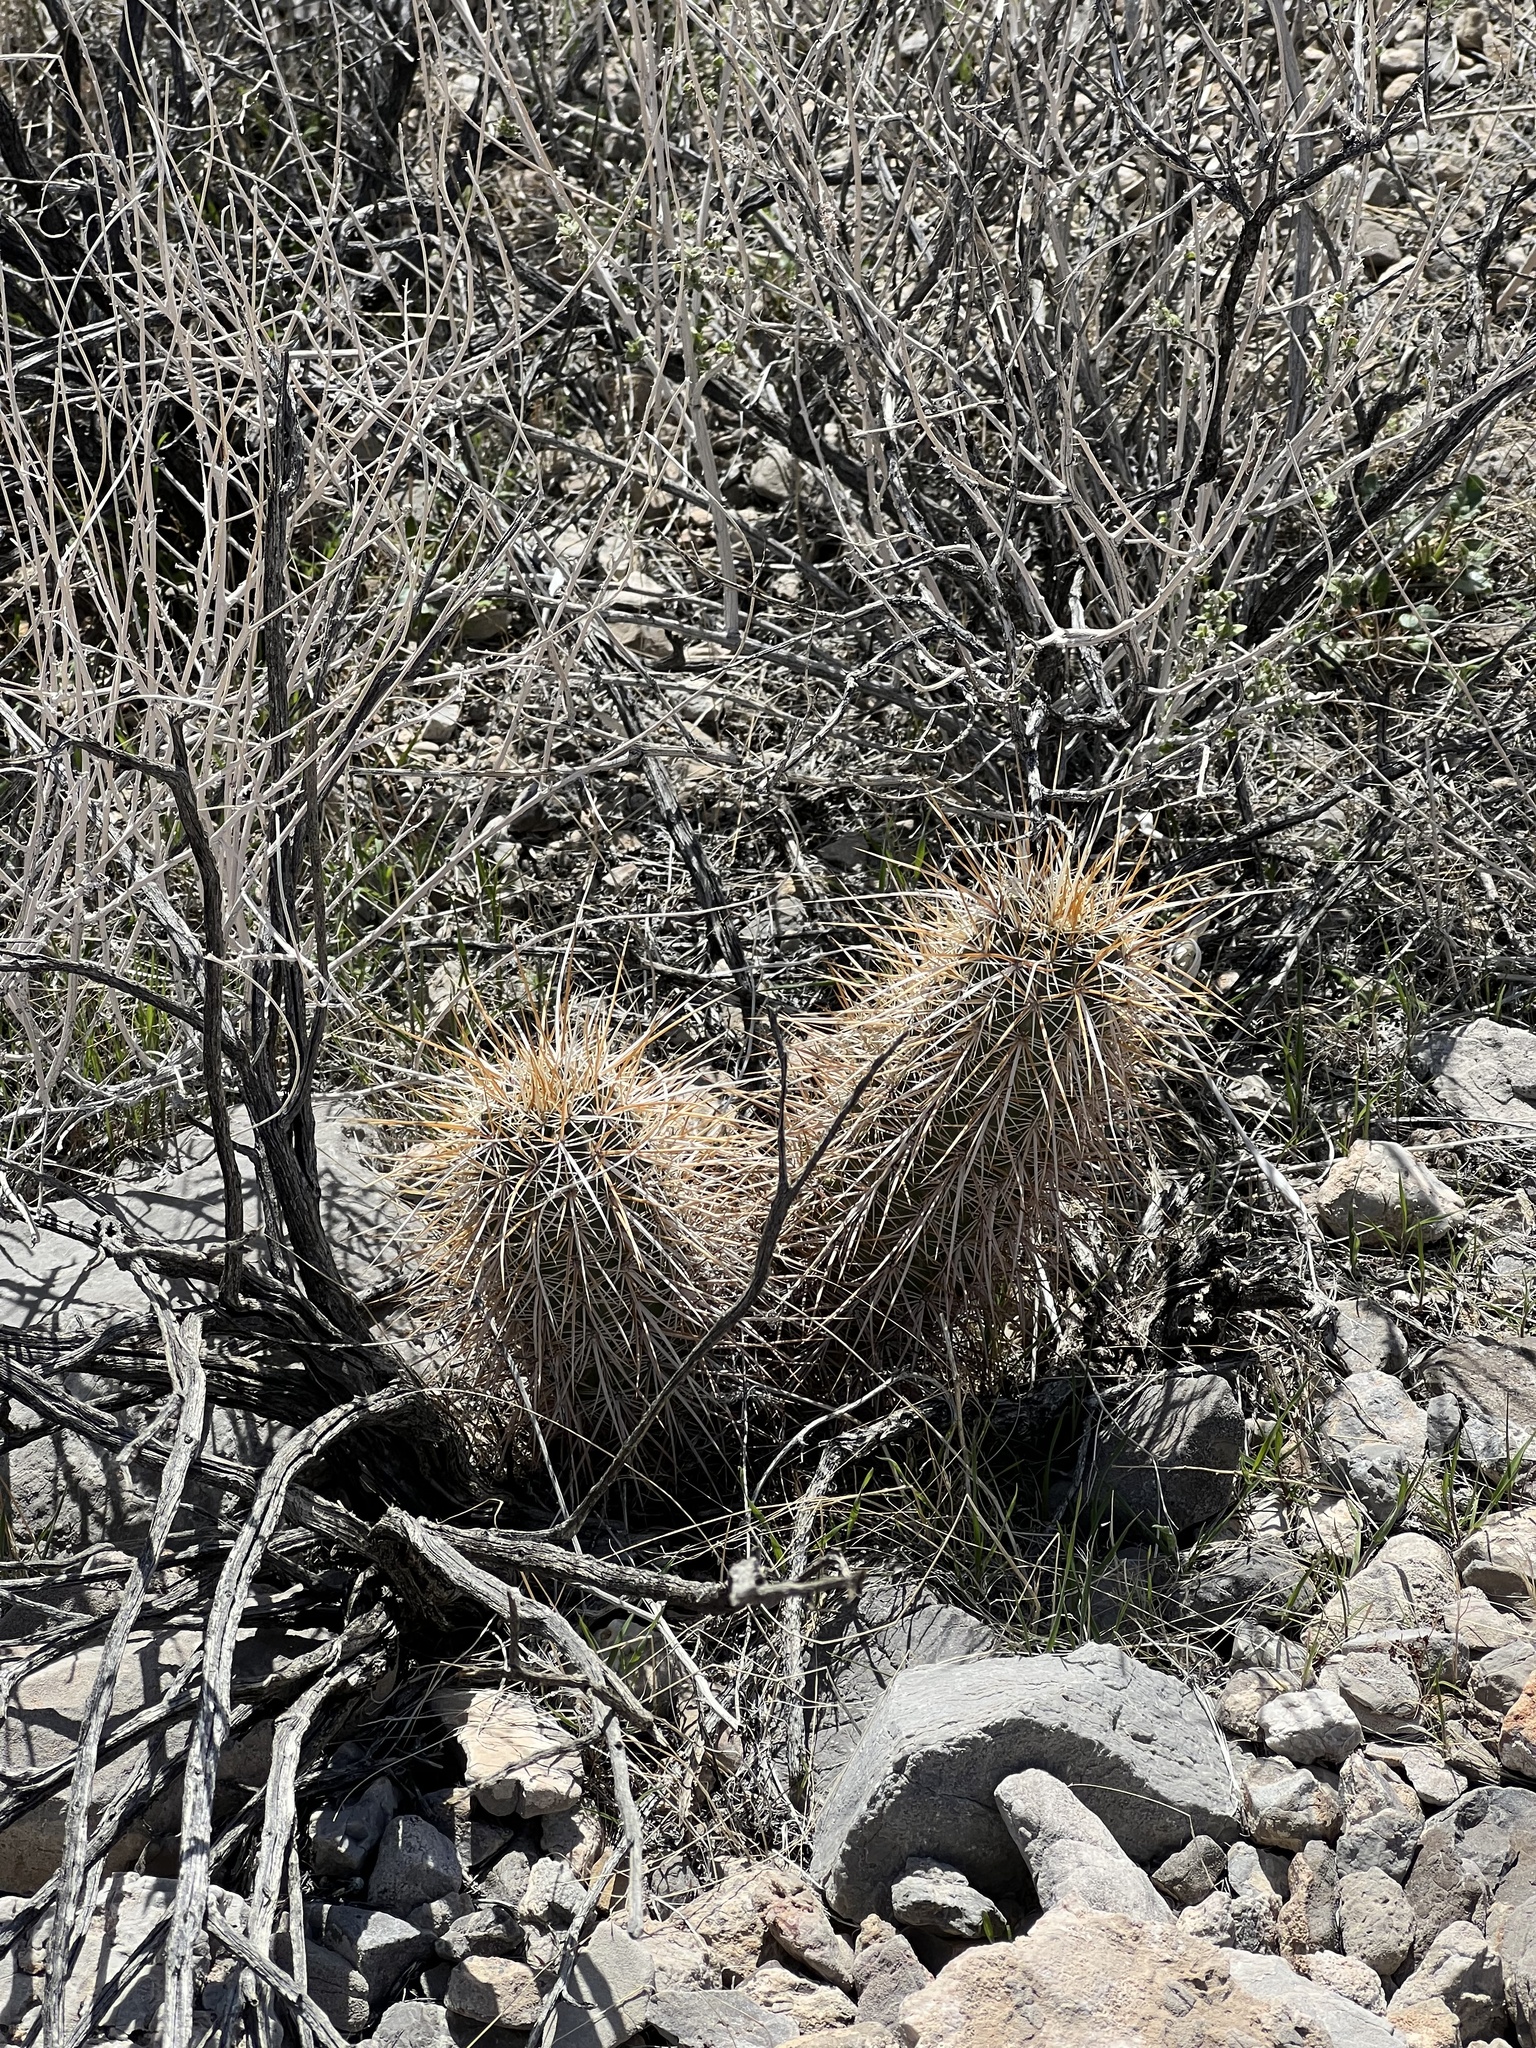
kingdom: Plantae
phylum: Tracheophyta
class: Magnoliopsida
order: Caryophyllales
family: Cactaceae
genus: Echinocereus
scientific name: Echinocereus engelmannii
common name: Engelmann's hedgehog cactus
